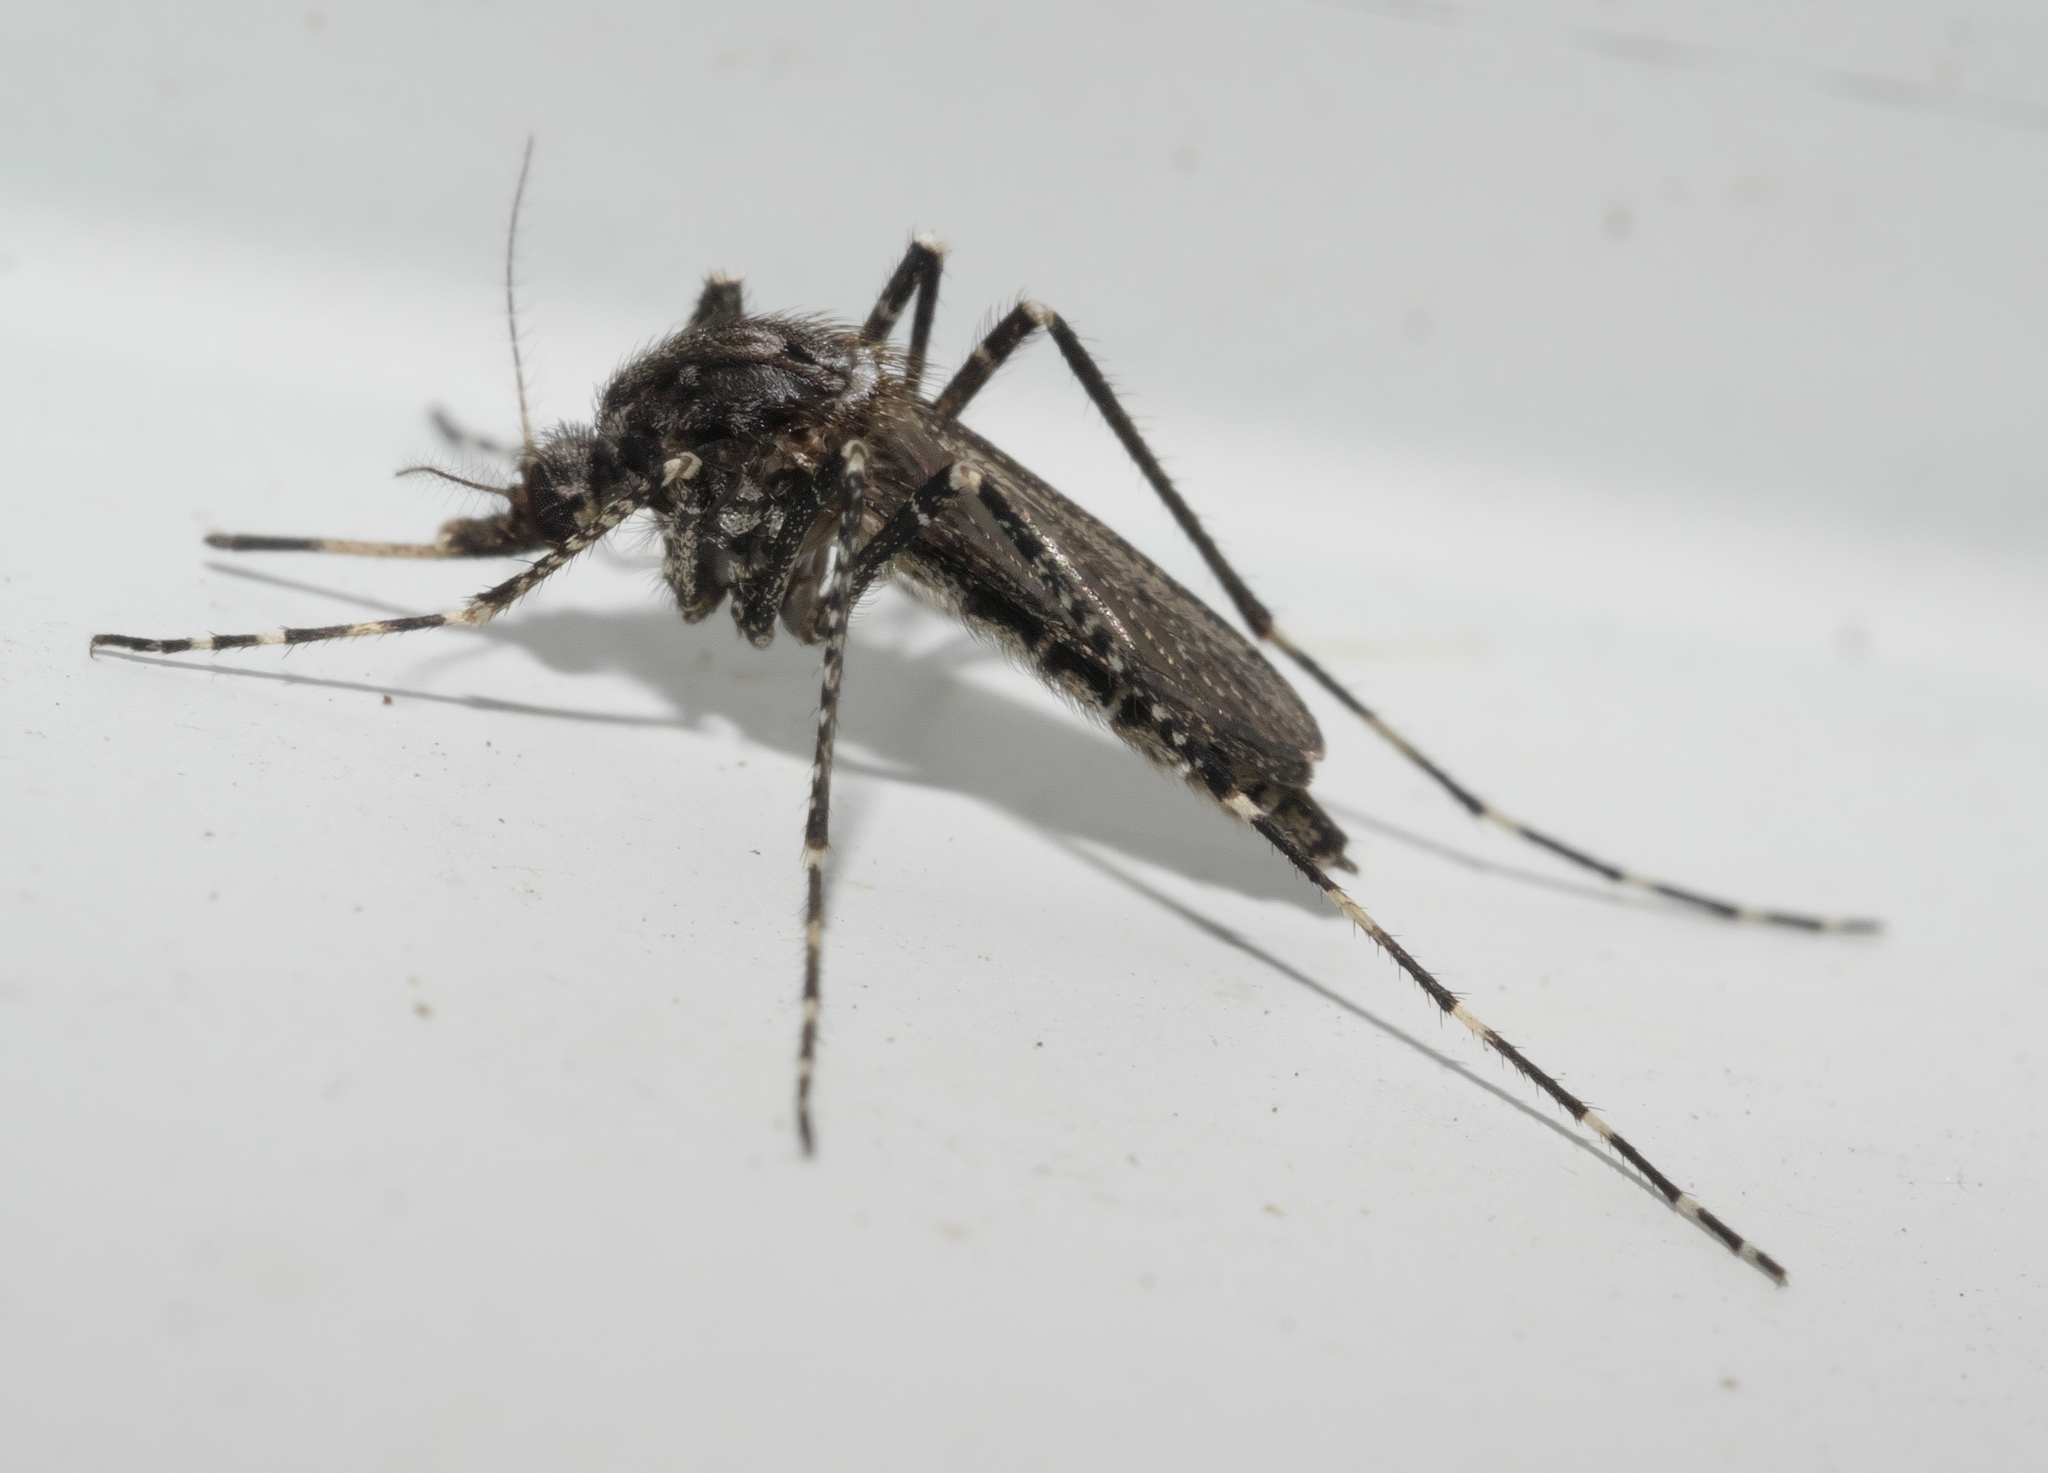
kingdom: Animalia
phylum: Arthropoda
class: Insecta
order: Diptera
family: Culicidae
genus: Psorophora
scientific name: Psorophora columbiae
